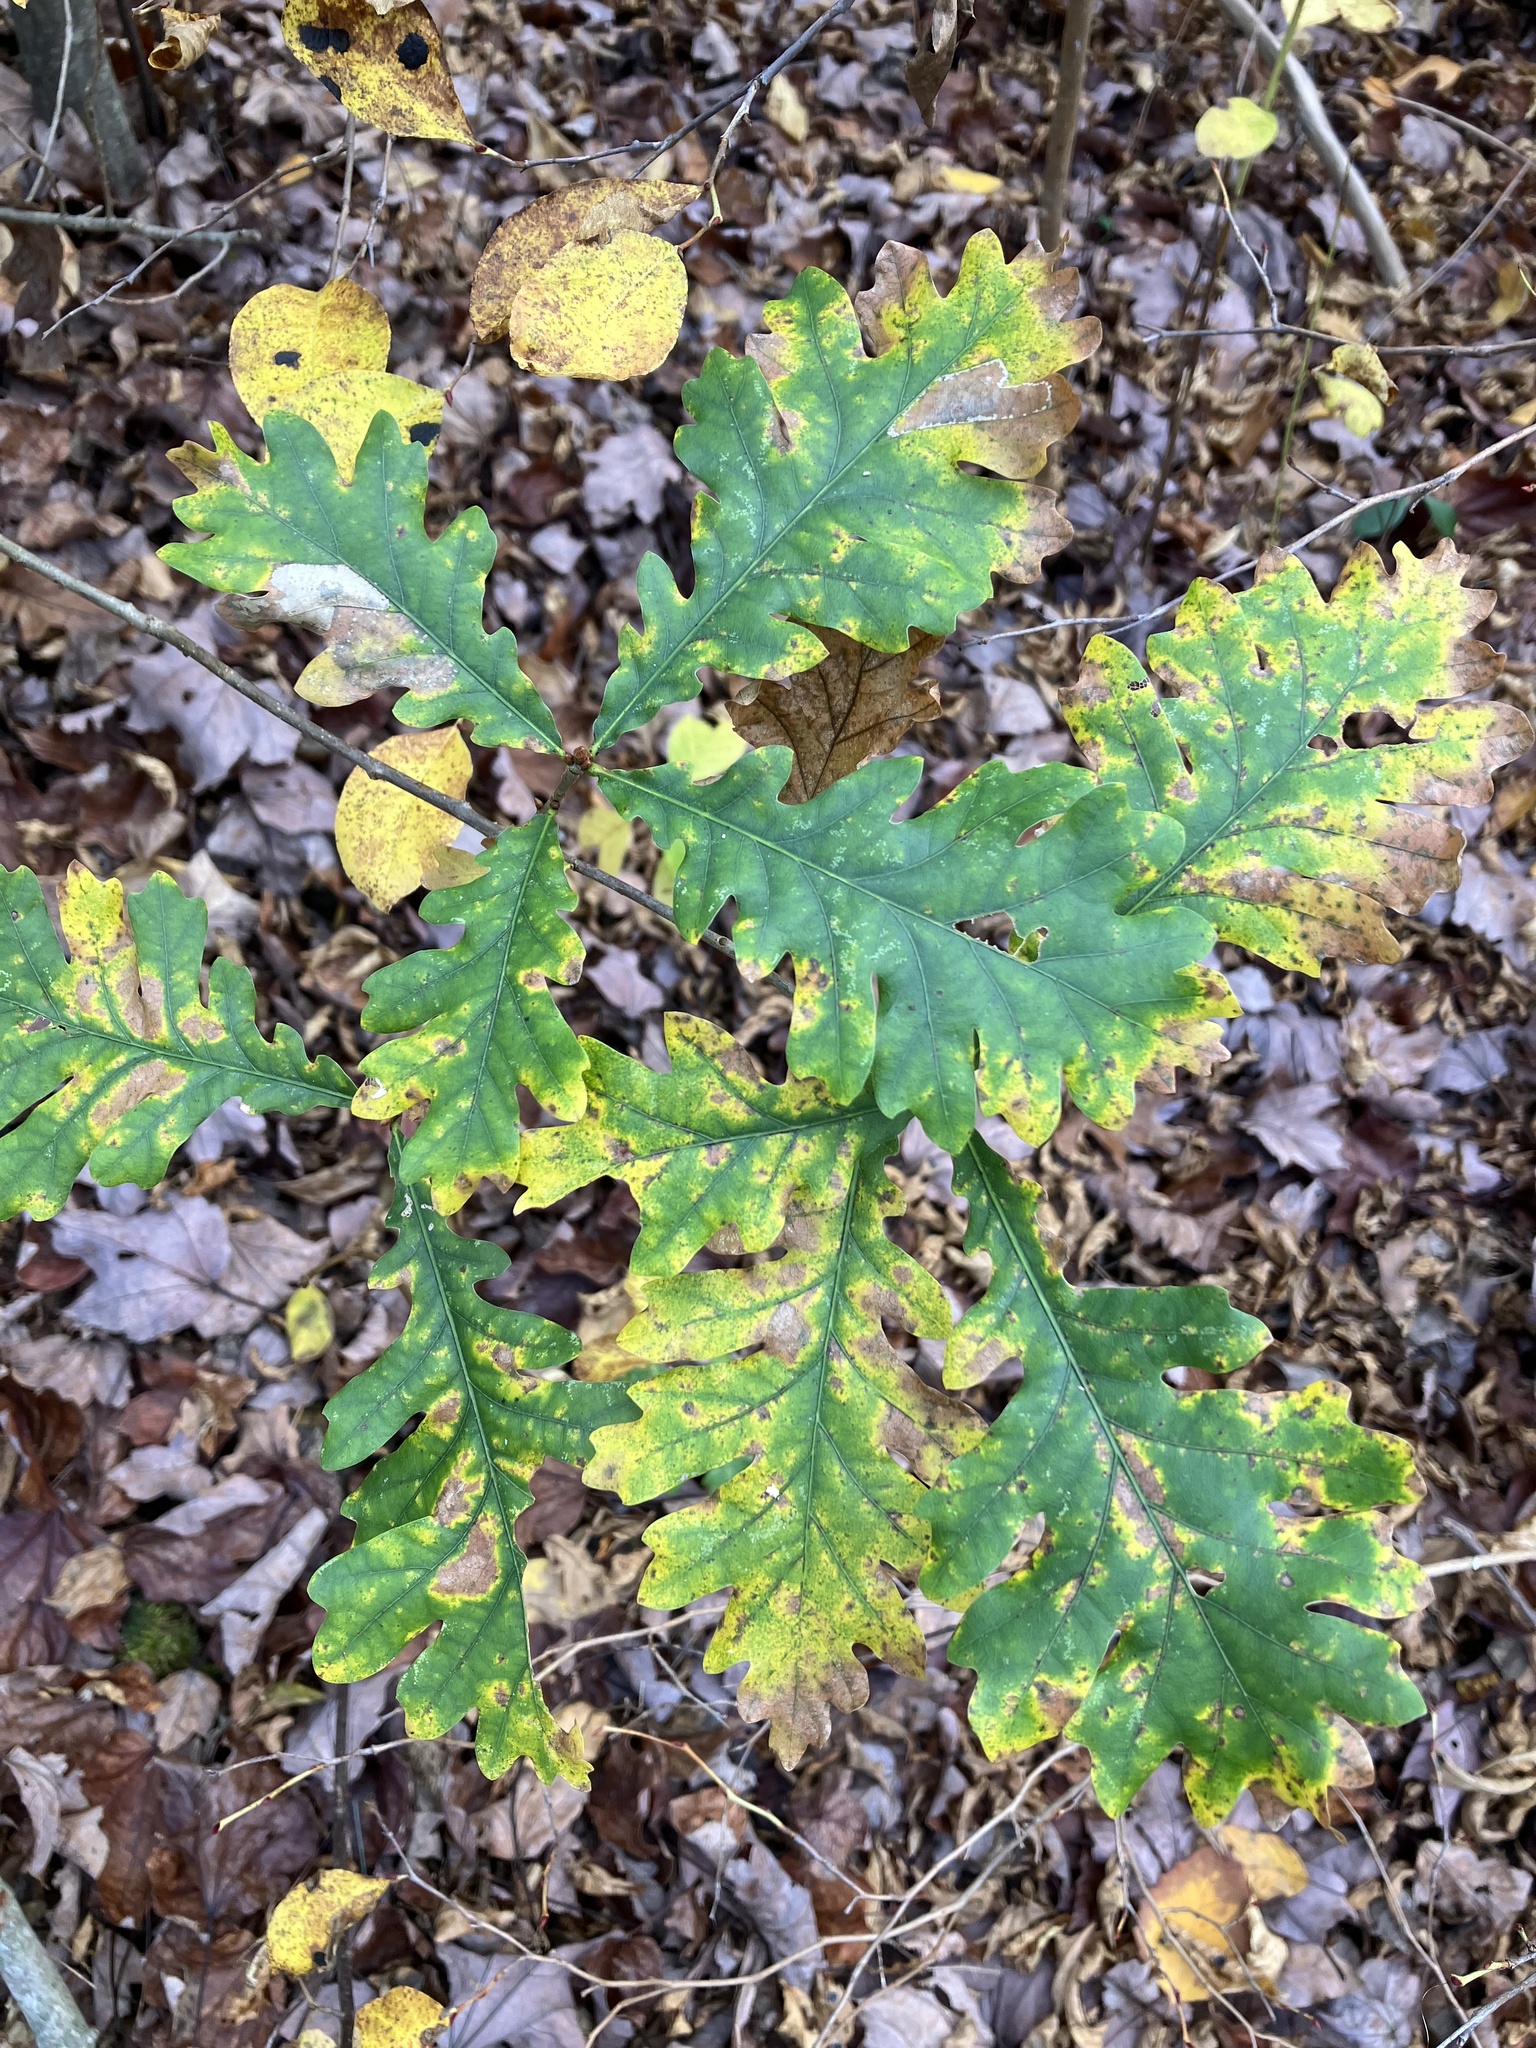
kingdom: Plantae
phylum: Tracheophyta
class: Magnoliopsida
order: Fagales
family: Fagaceae
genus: Quercus
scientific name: Quercus robur
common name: Pedunculate oak
